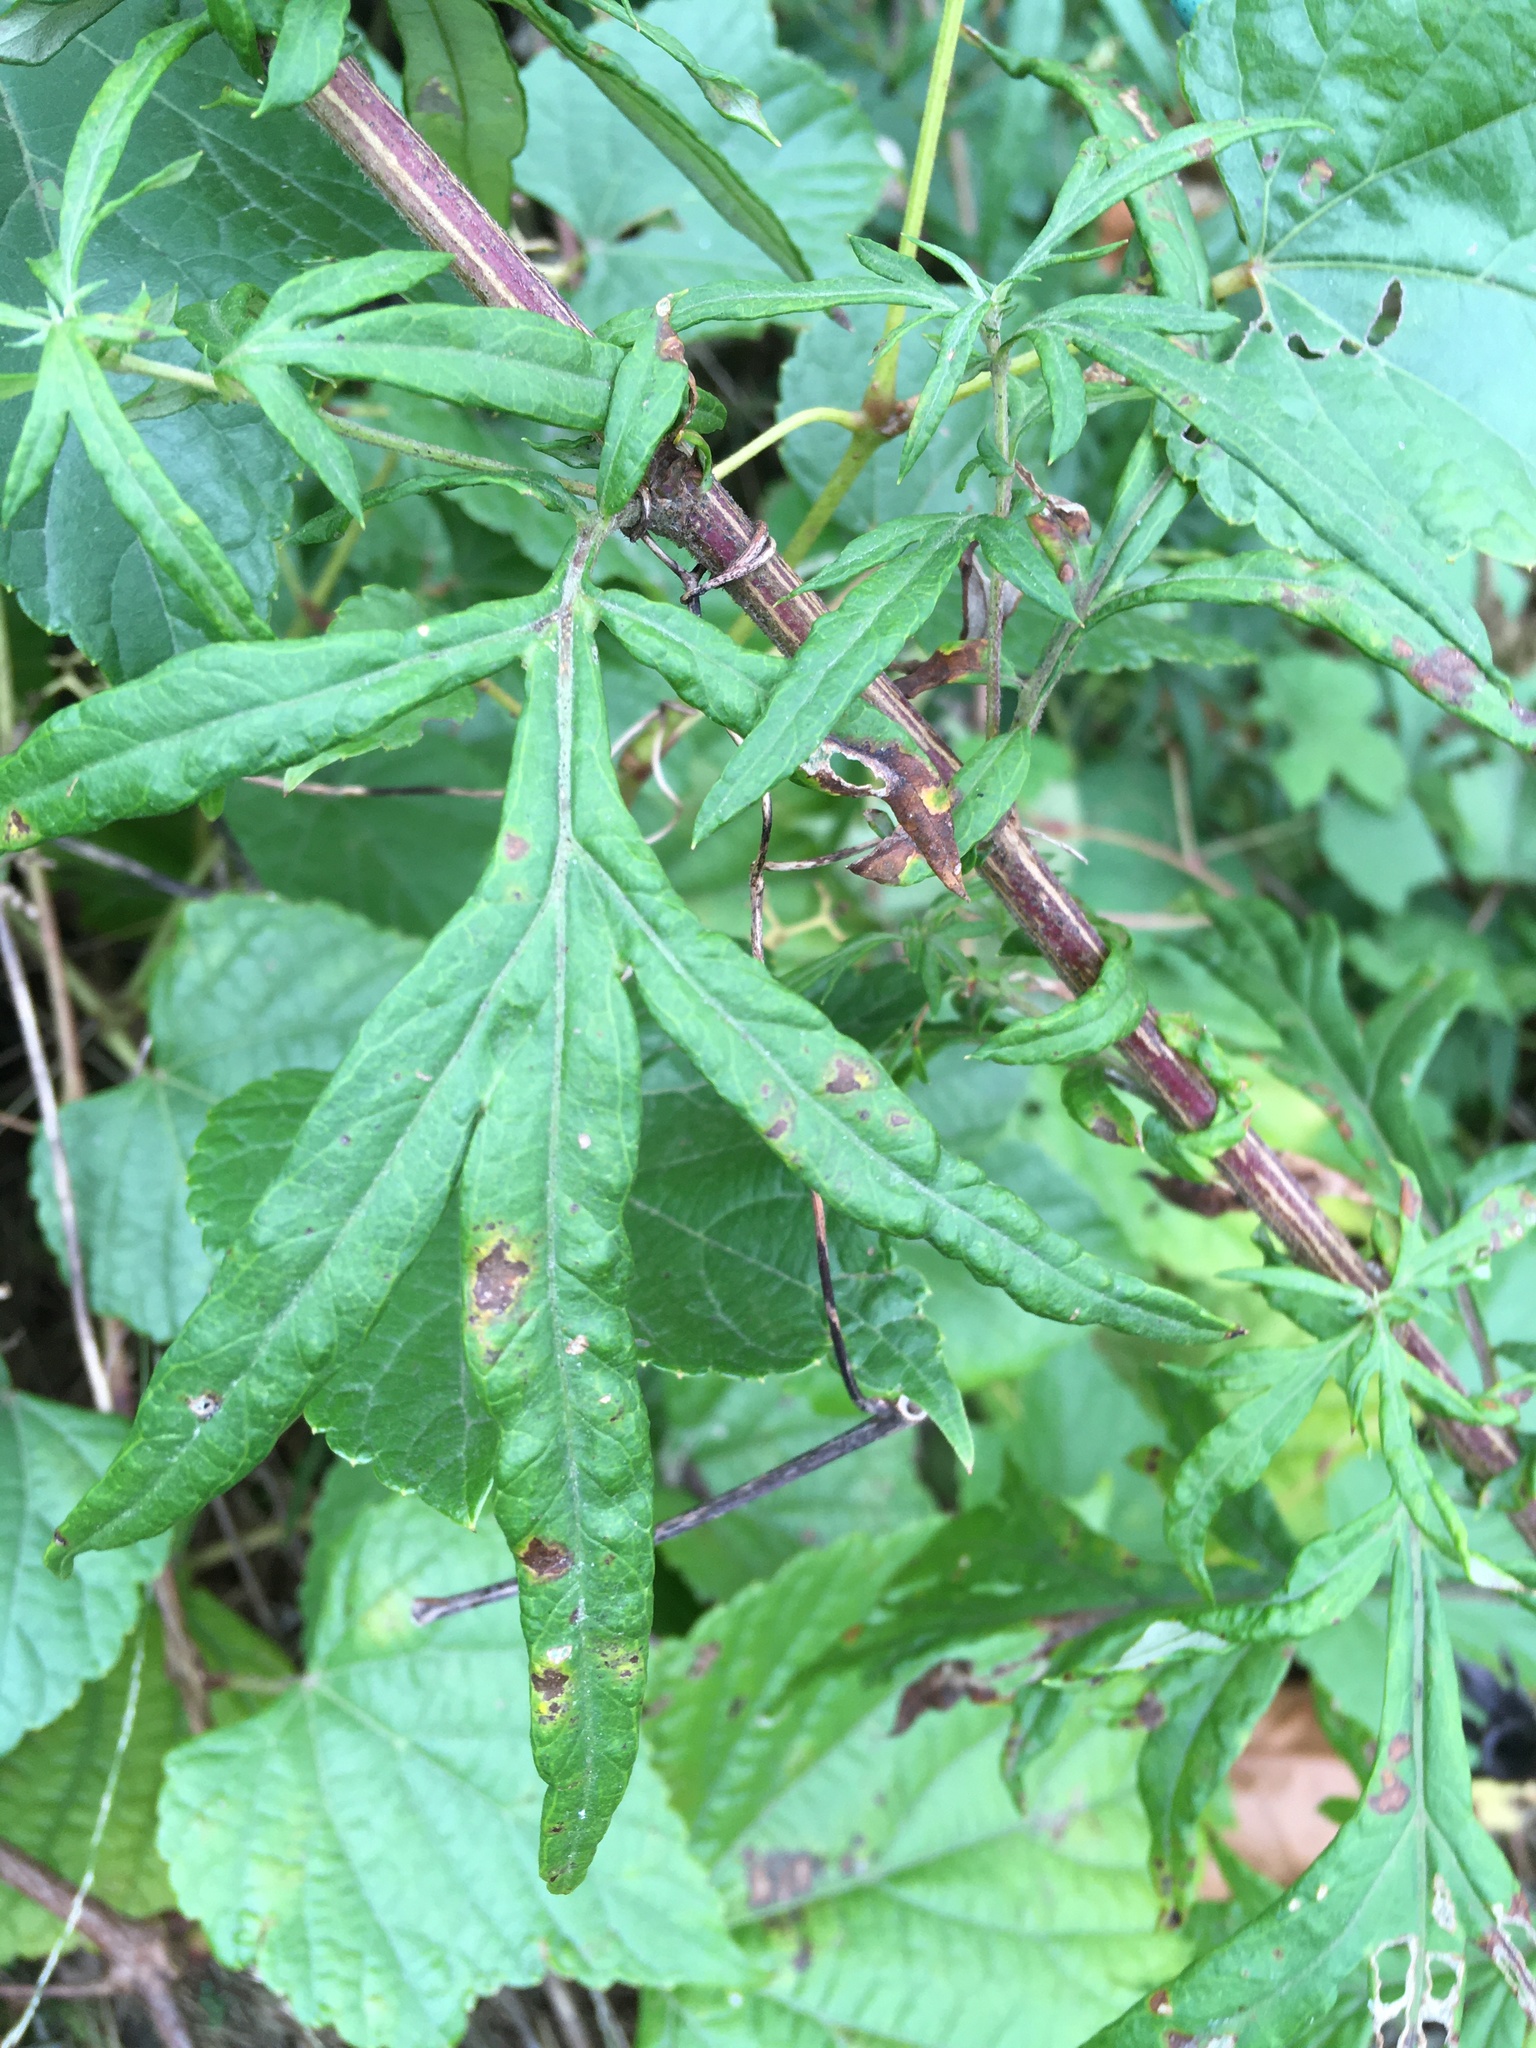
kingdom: Plantae
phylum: Tracheophyta
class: Magnoliopsida
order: Asterales
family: Asteraceae
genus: Artemisia
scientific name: Artemisia vulgaris
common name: Mugwort
